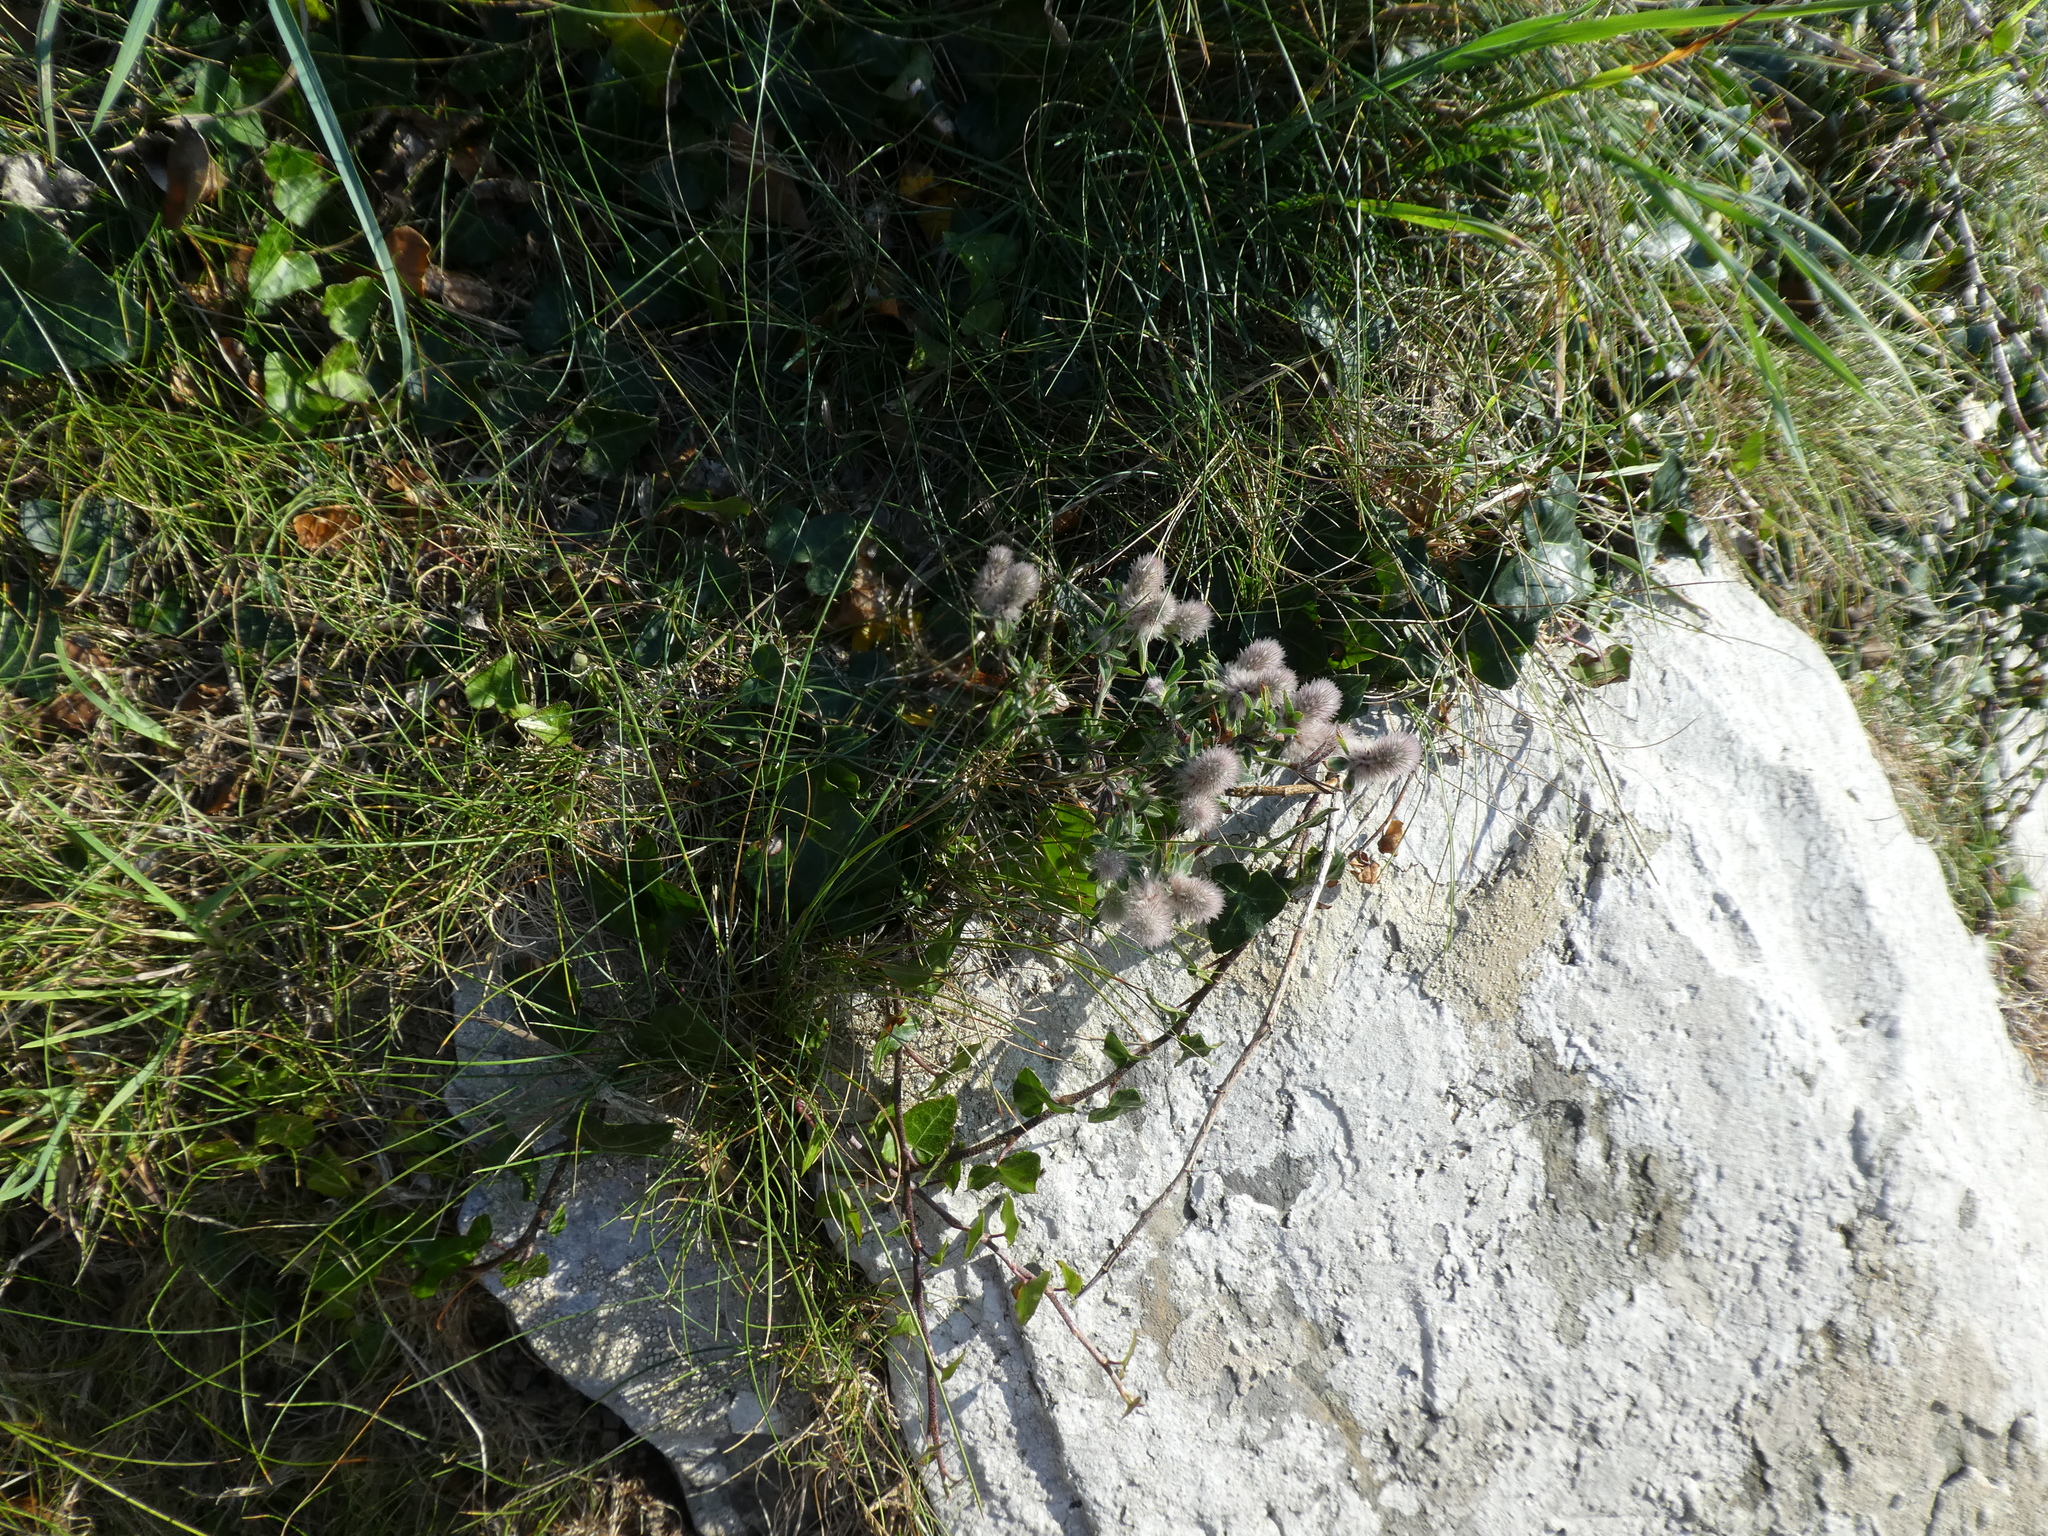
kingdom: Plantae
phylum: Tracheophyta
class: Magnoliopsida
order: Fabales
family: Fabaceae
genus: Trifolium
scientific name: Trifolium arvense
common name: Hare's-foot clover
